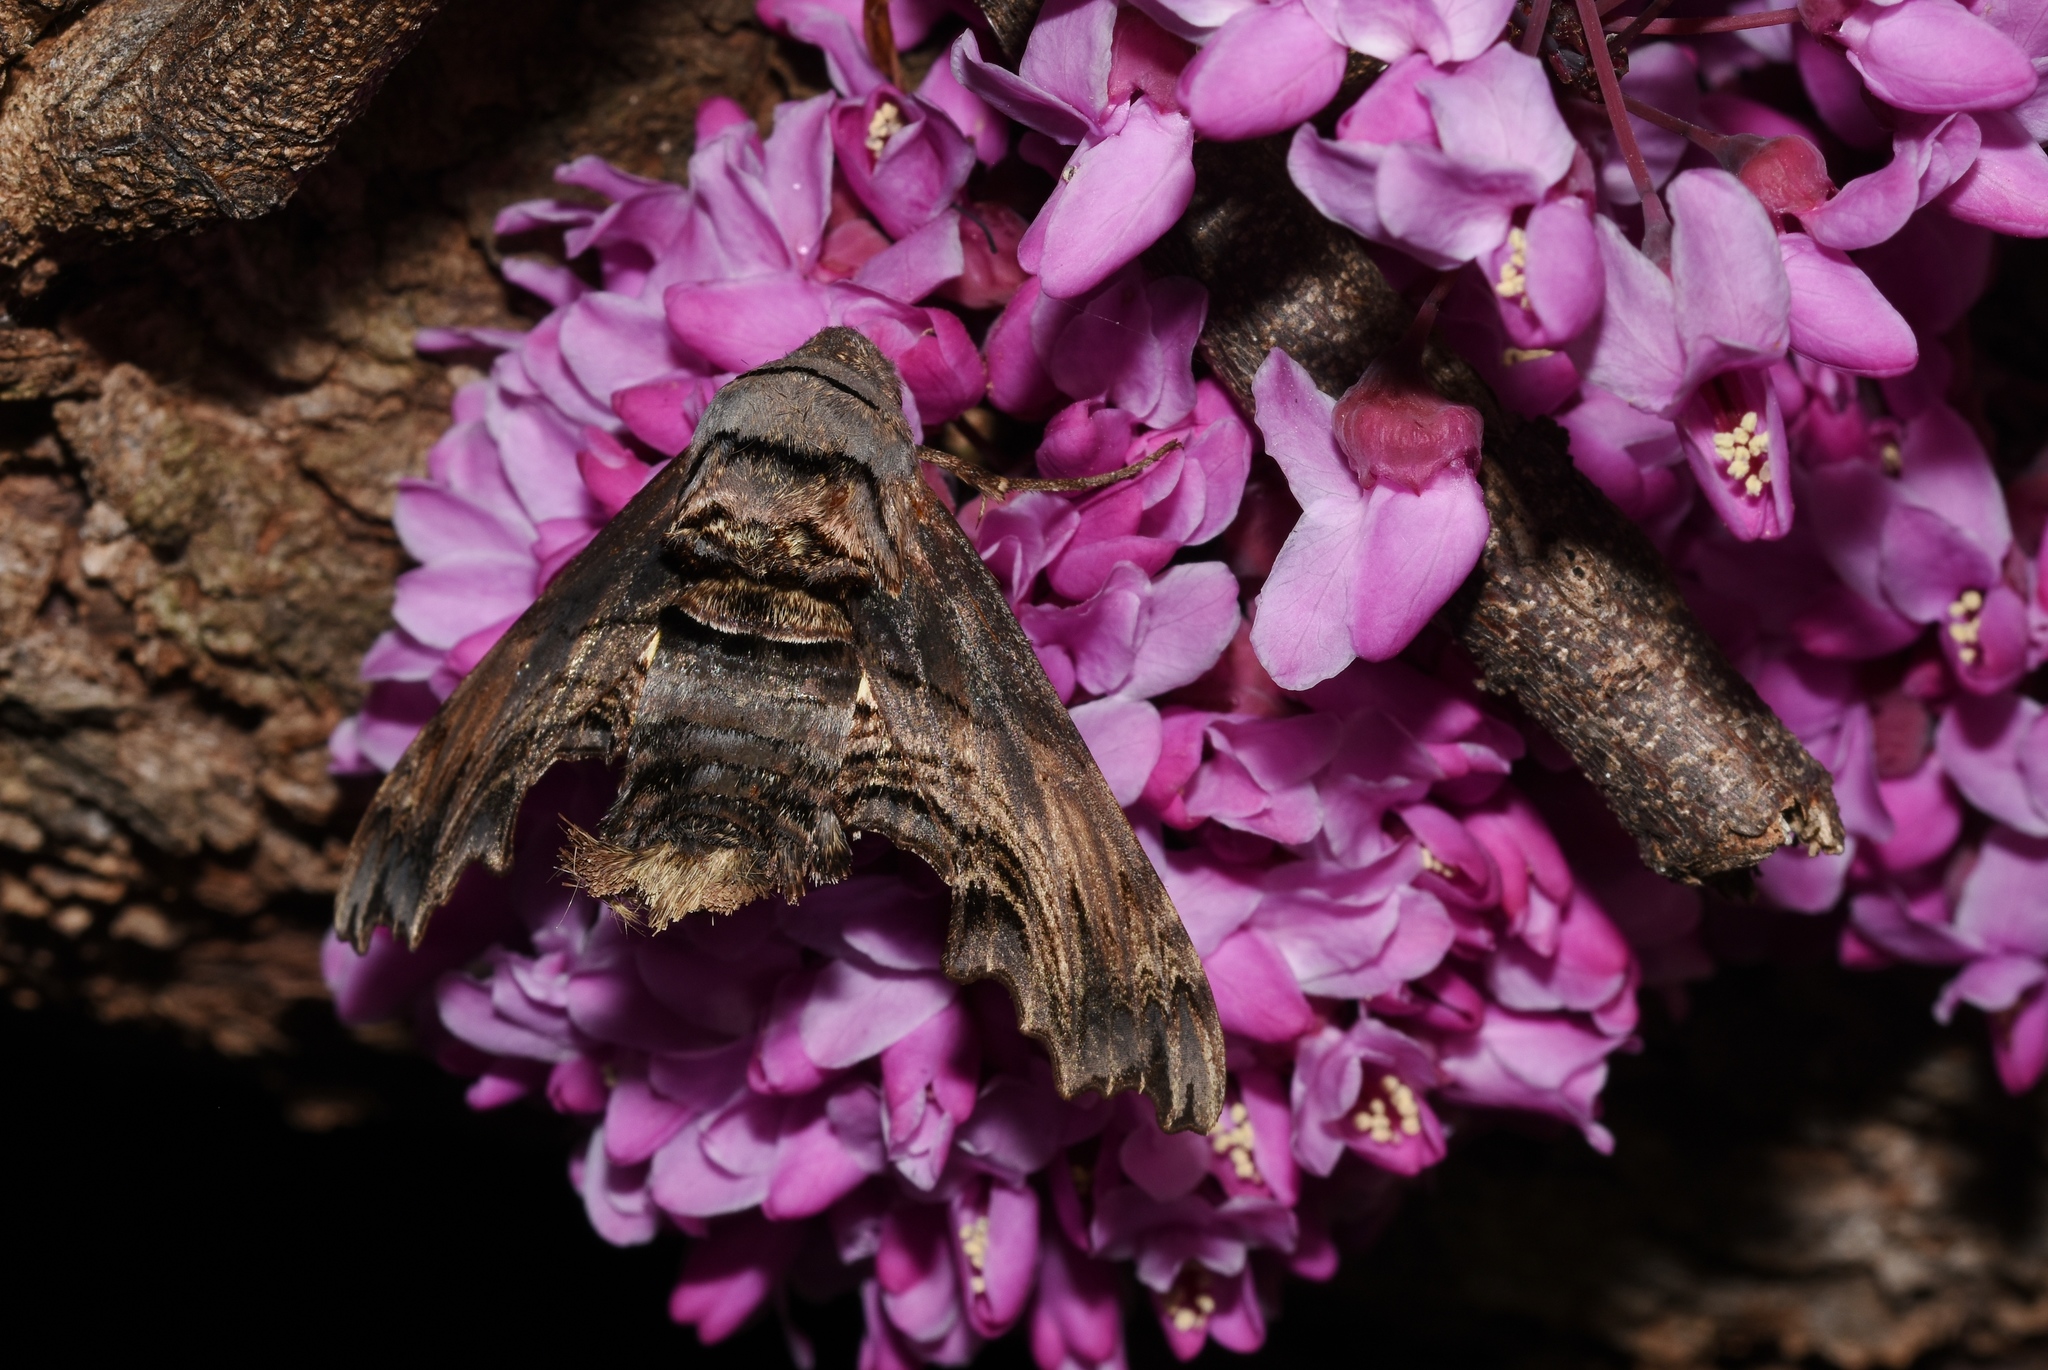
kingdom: Animalia
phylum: Arthropoda
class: Insecta
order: Lepidoptera
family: Sphingidae
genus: Sphecodina
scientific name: Sphecodina abbottii
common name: Abbott's sphinx
